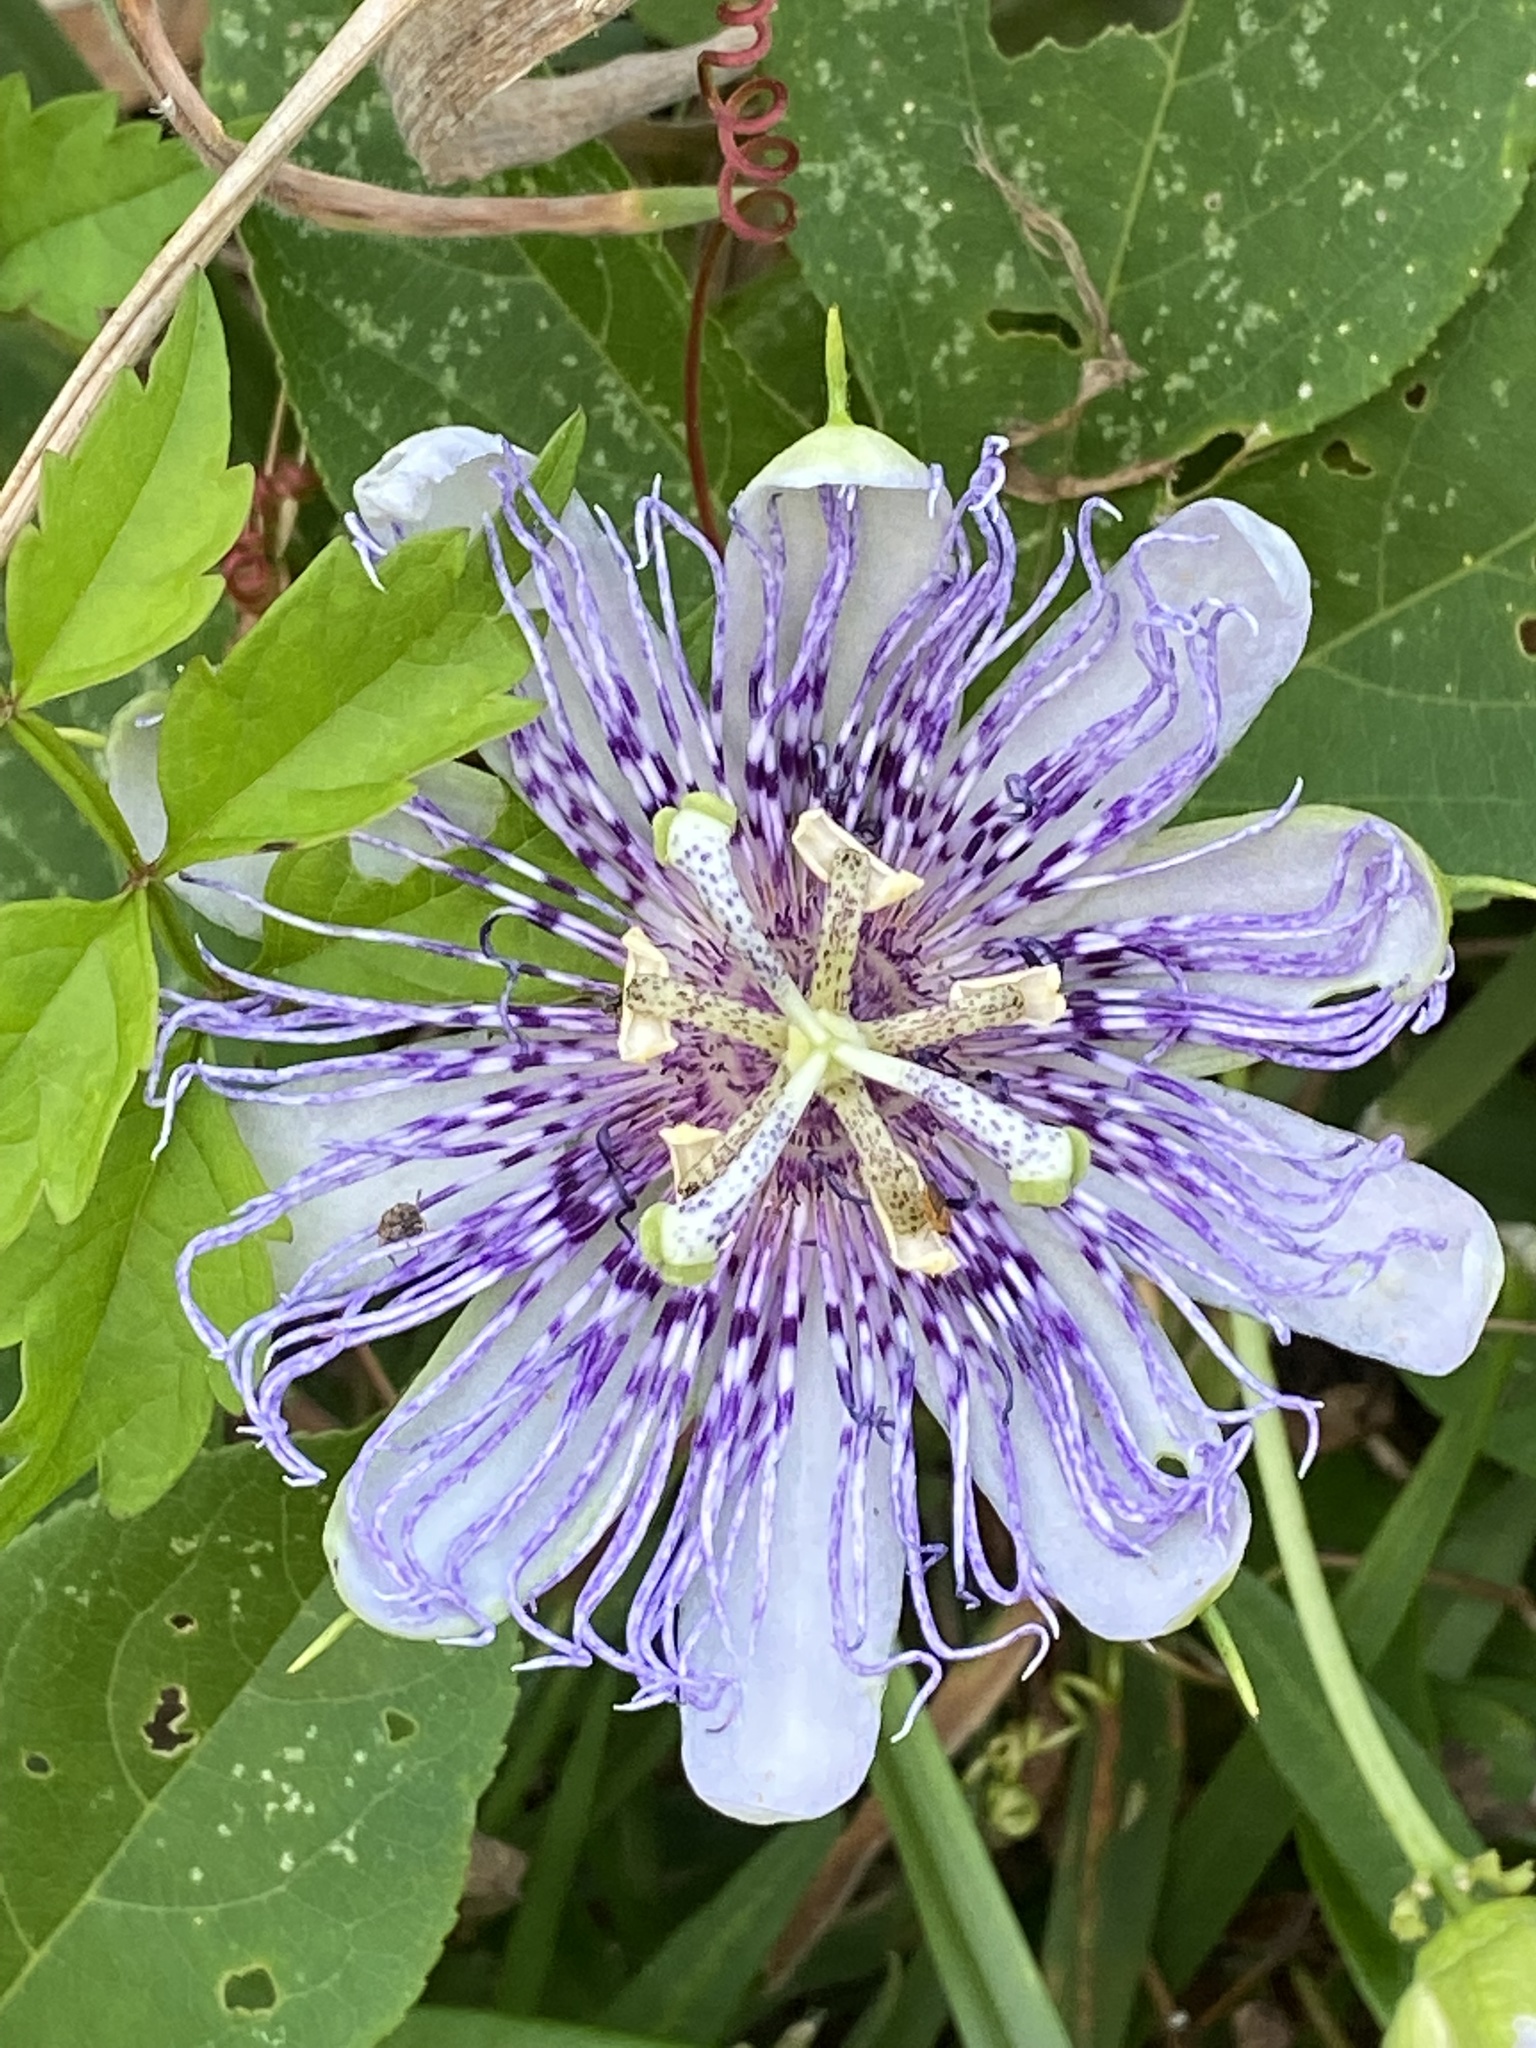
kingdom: Plantae
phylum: Tracheophyta
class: Magnoliopsida
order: Malpighiales
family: Passifloraceae
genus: Passiflora
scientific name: Passiflora incarnata
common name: Apricot-vine
